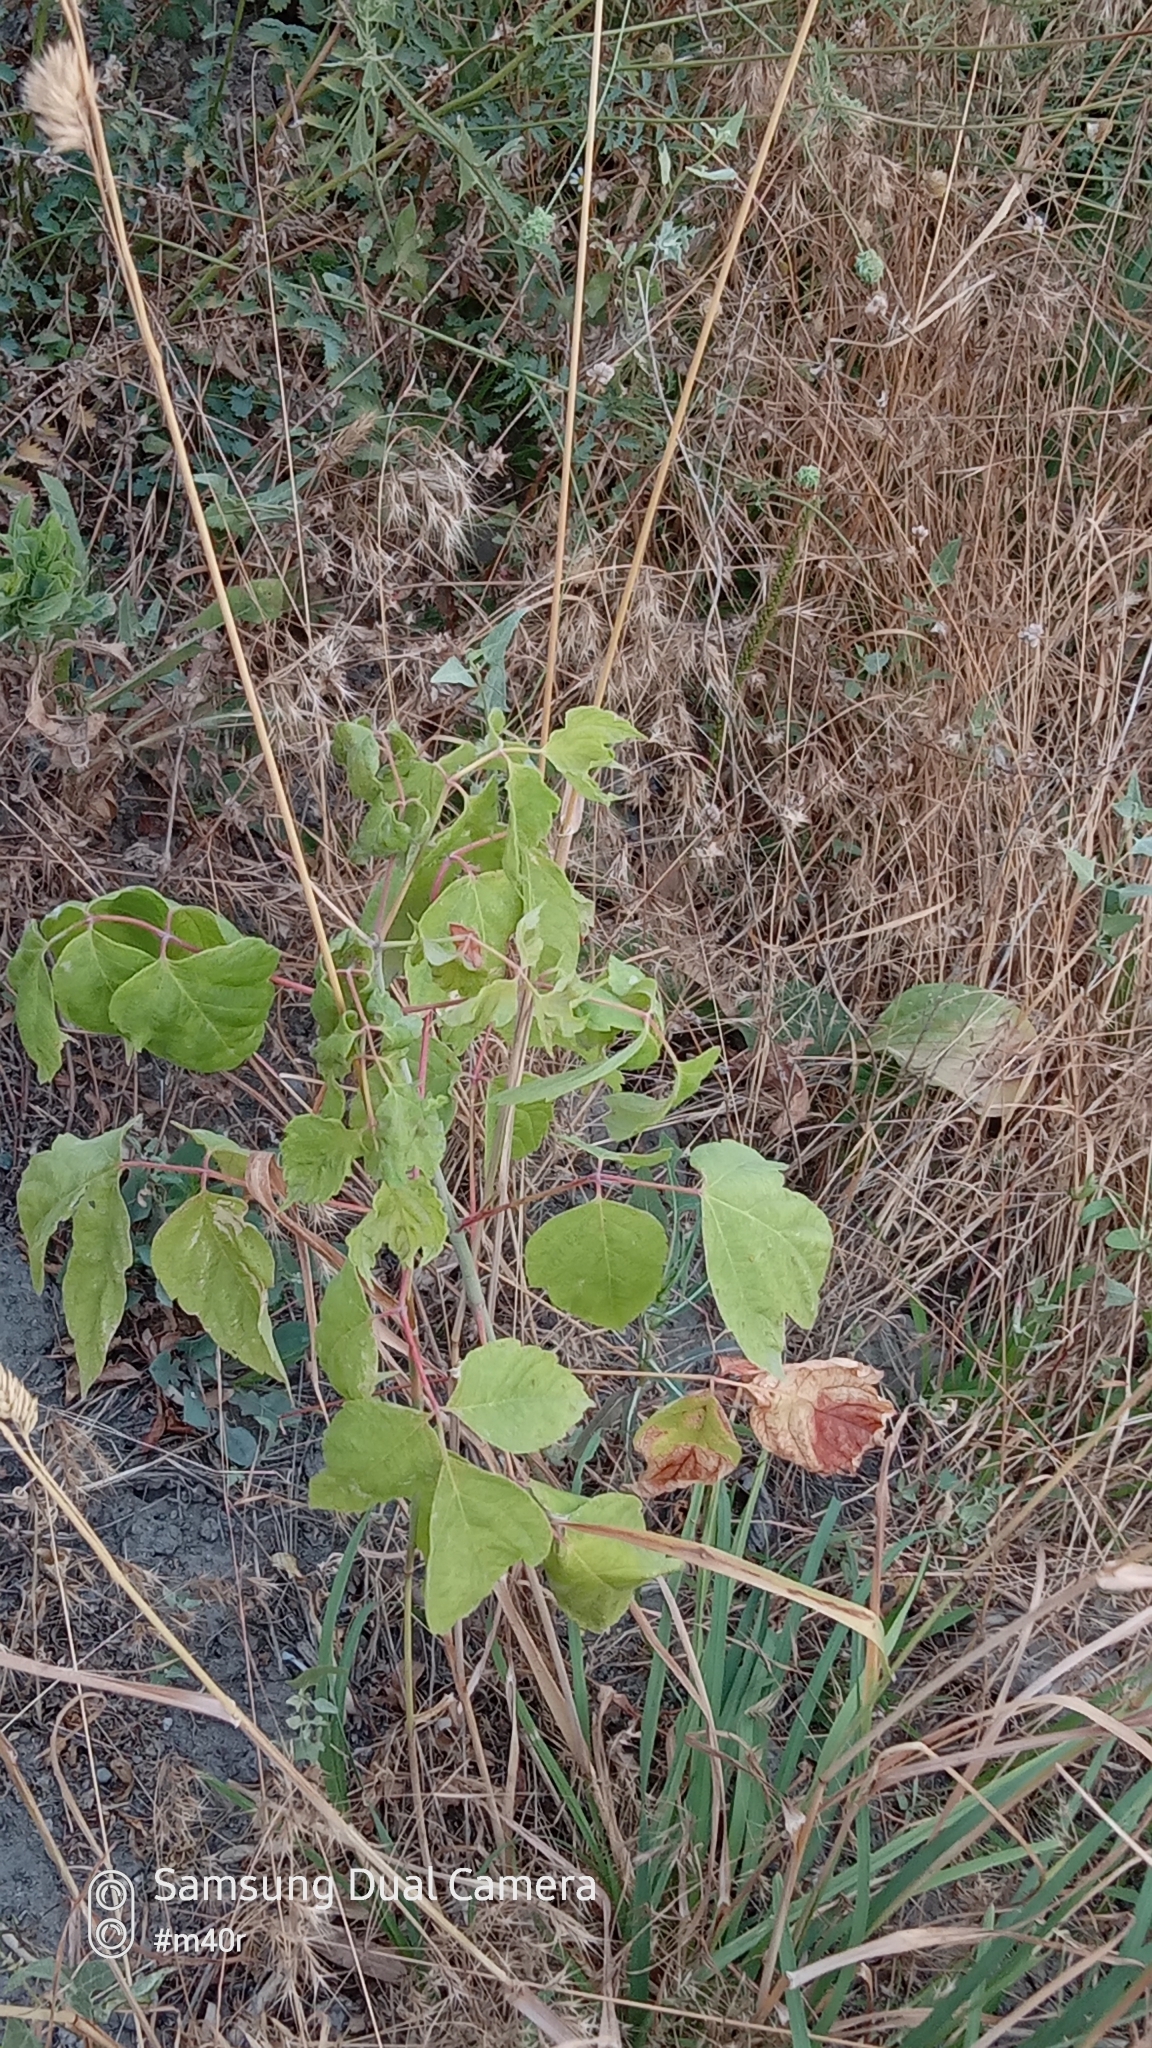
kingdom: Plantae
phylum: Tracheophyta
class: Magnoliopsida
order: Sapindales
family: Sapindaceae
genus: Acer
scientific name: Acer negundo
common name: Ashleaf maple
